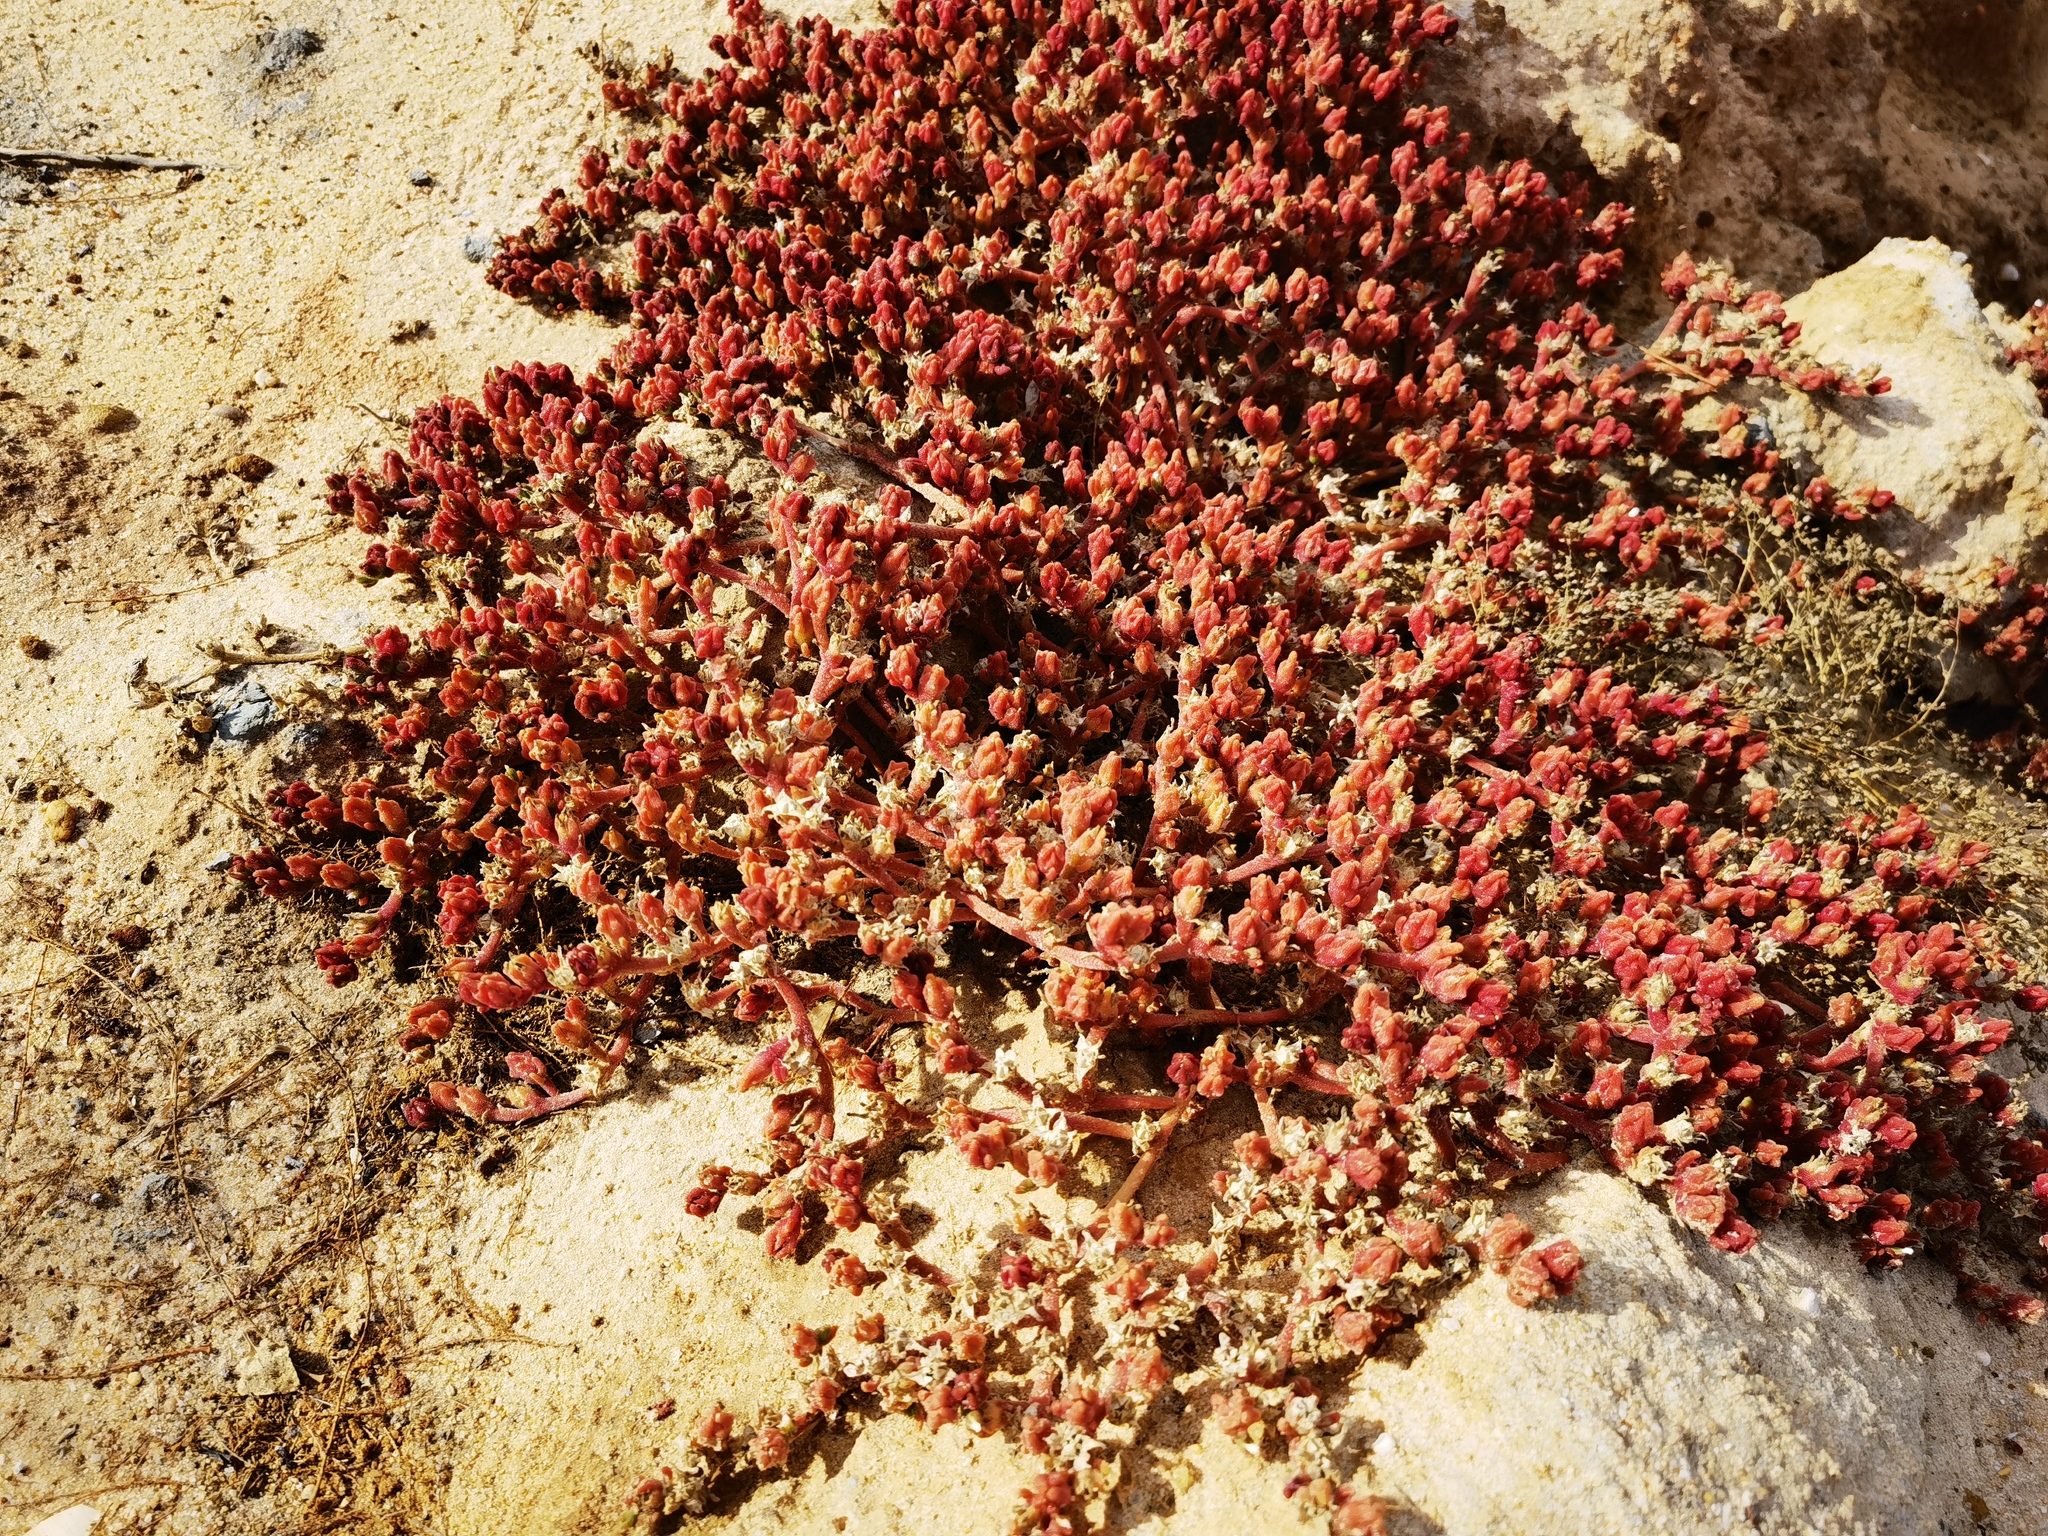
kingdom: Plantae
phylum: Tracheophyta
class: Magnoliopsida
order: Caryophyllales
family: Aizoaceae
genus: Mesembryanthemum
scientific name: Mesembryanthemum nodiflorum
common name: Slenderleaf iceplant
